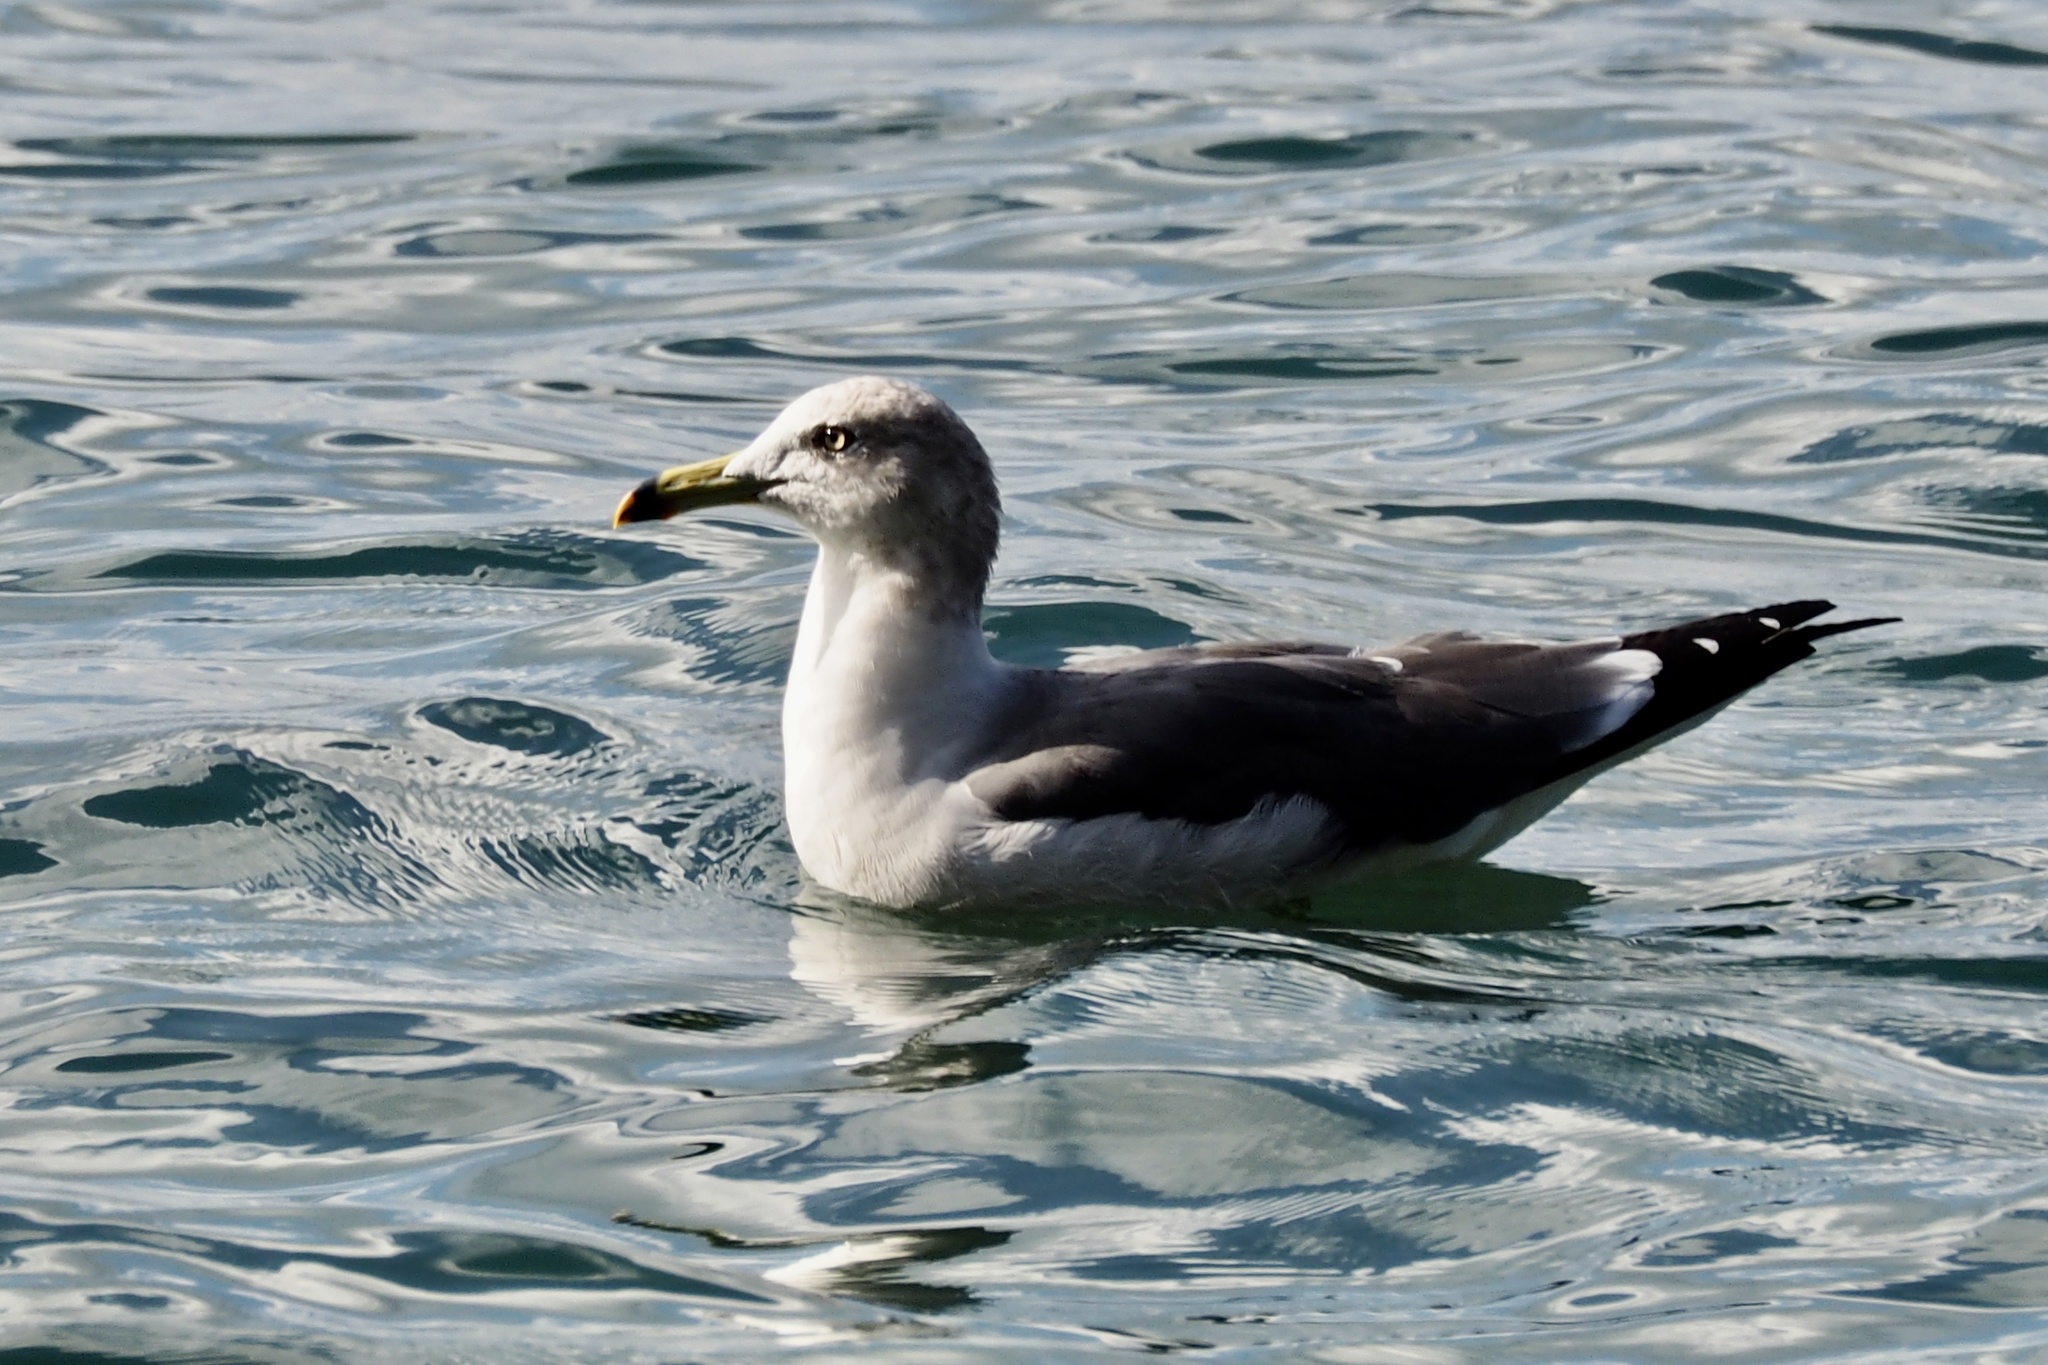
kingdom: Animalia
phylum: Chordata
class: Aves
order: Charadriiformes
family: Laridae
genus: Larus
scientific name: Larus crassirostris
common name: Black-tailed gull
